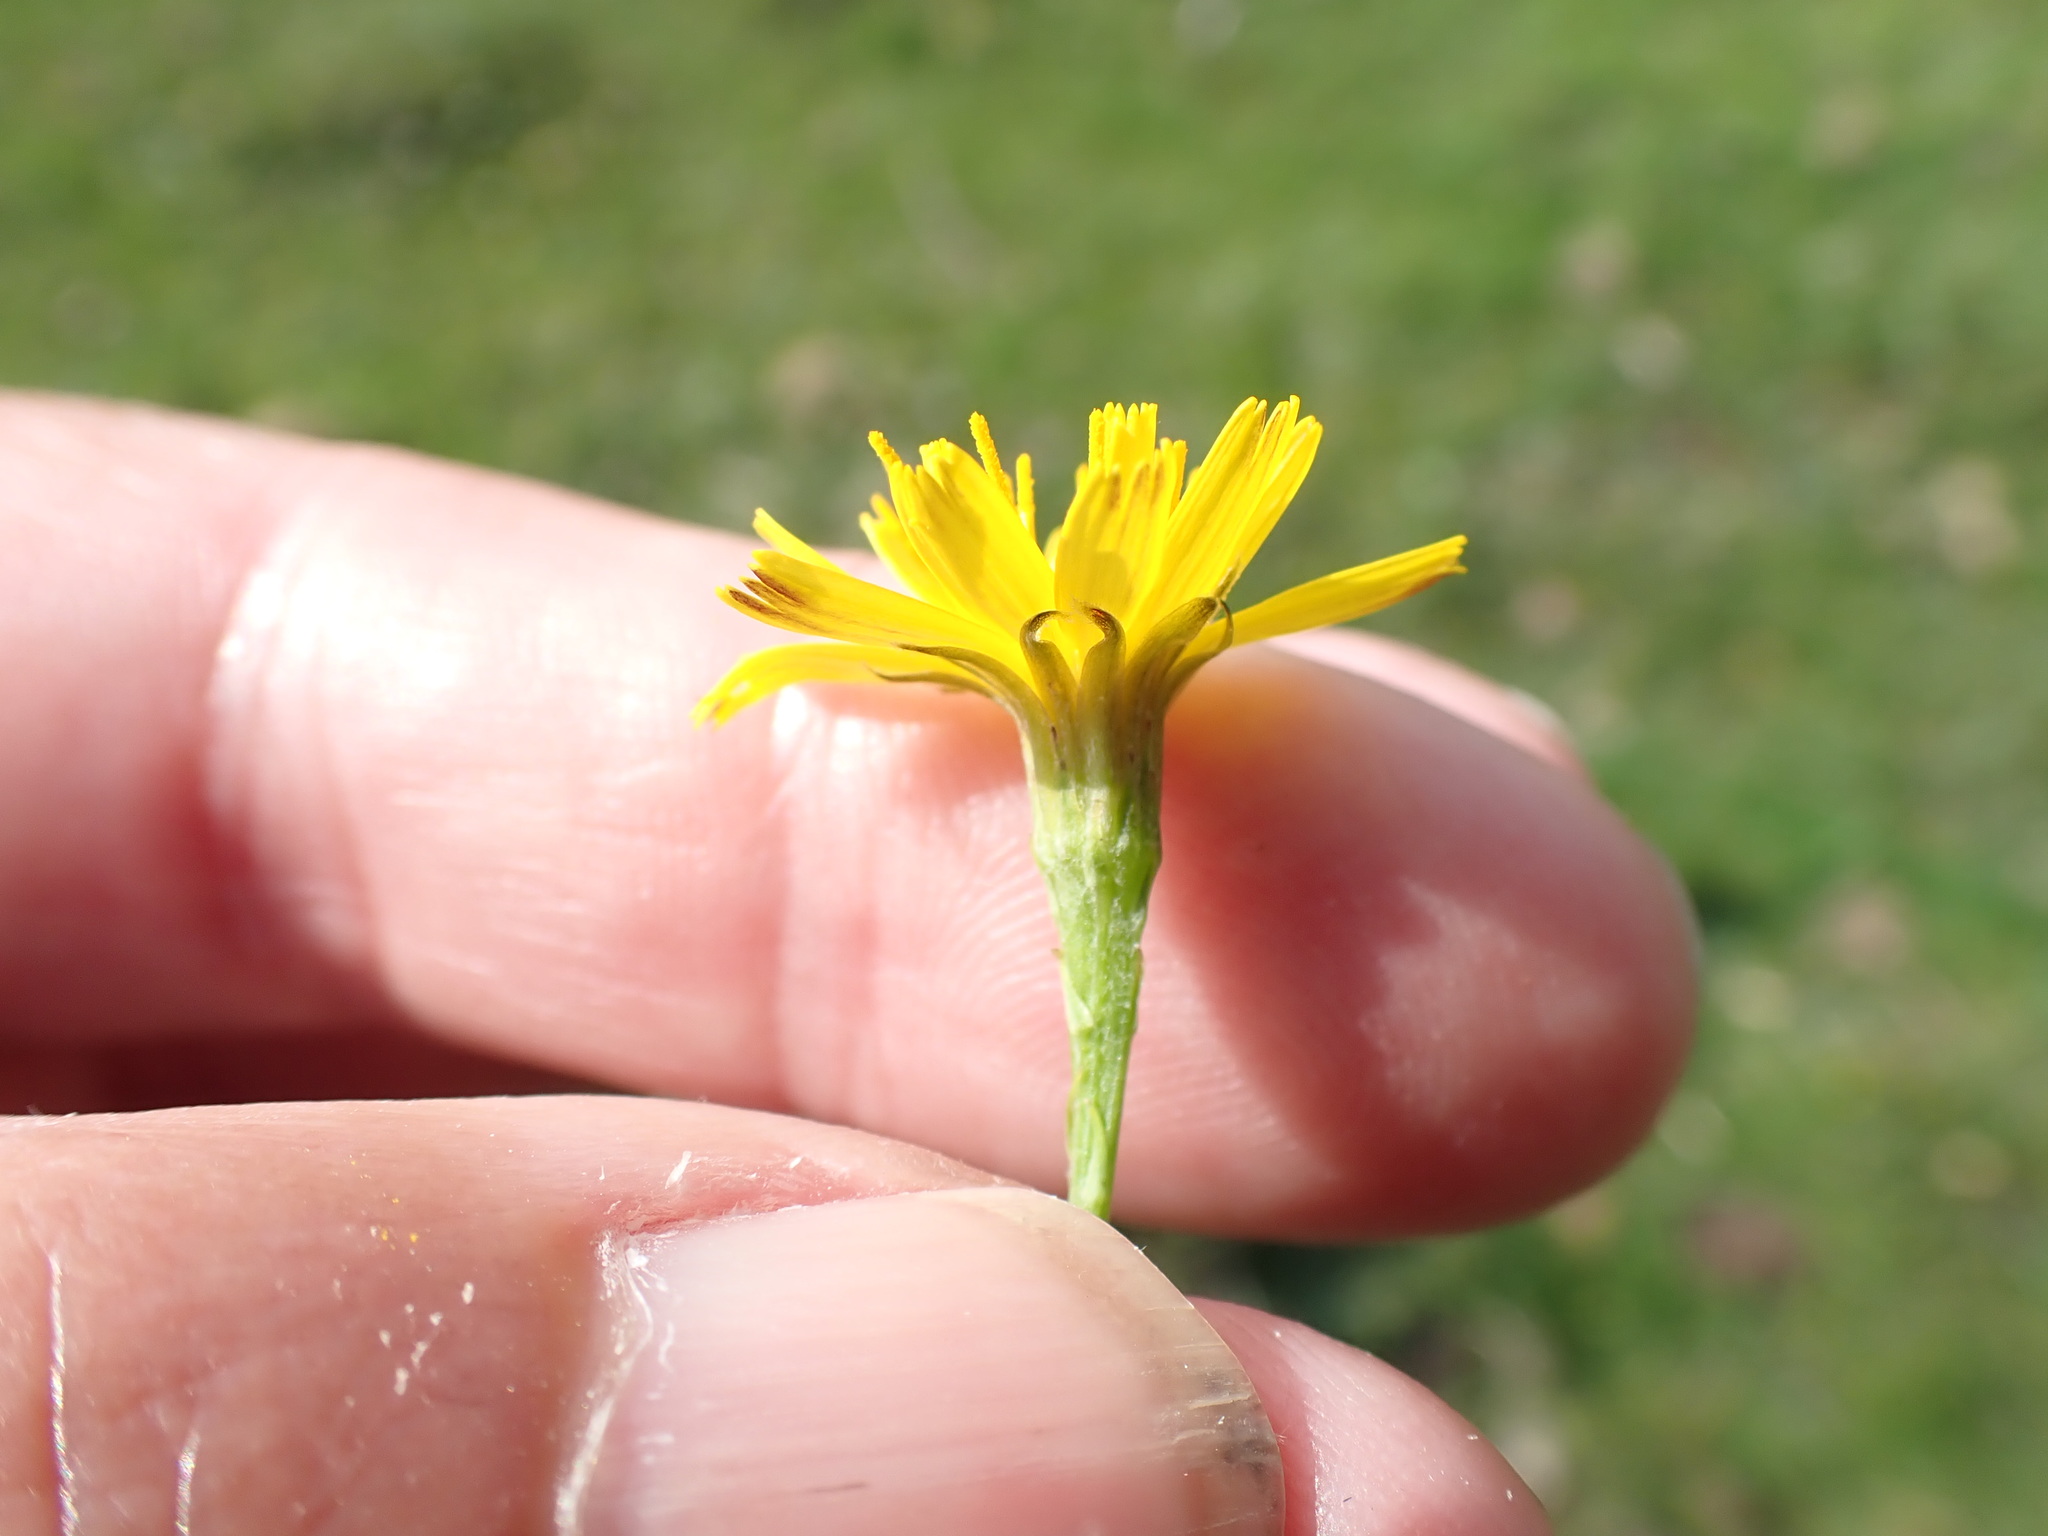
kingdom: Plantae
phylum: Tracheophyta
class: Magnoliopsida
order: Asterales
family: Asteraceae
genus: Scorzoneroides
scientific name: Scorzoneroides autumnalis
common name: Autumn hawkbit
